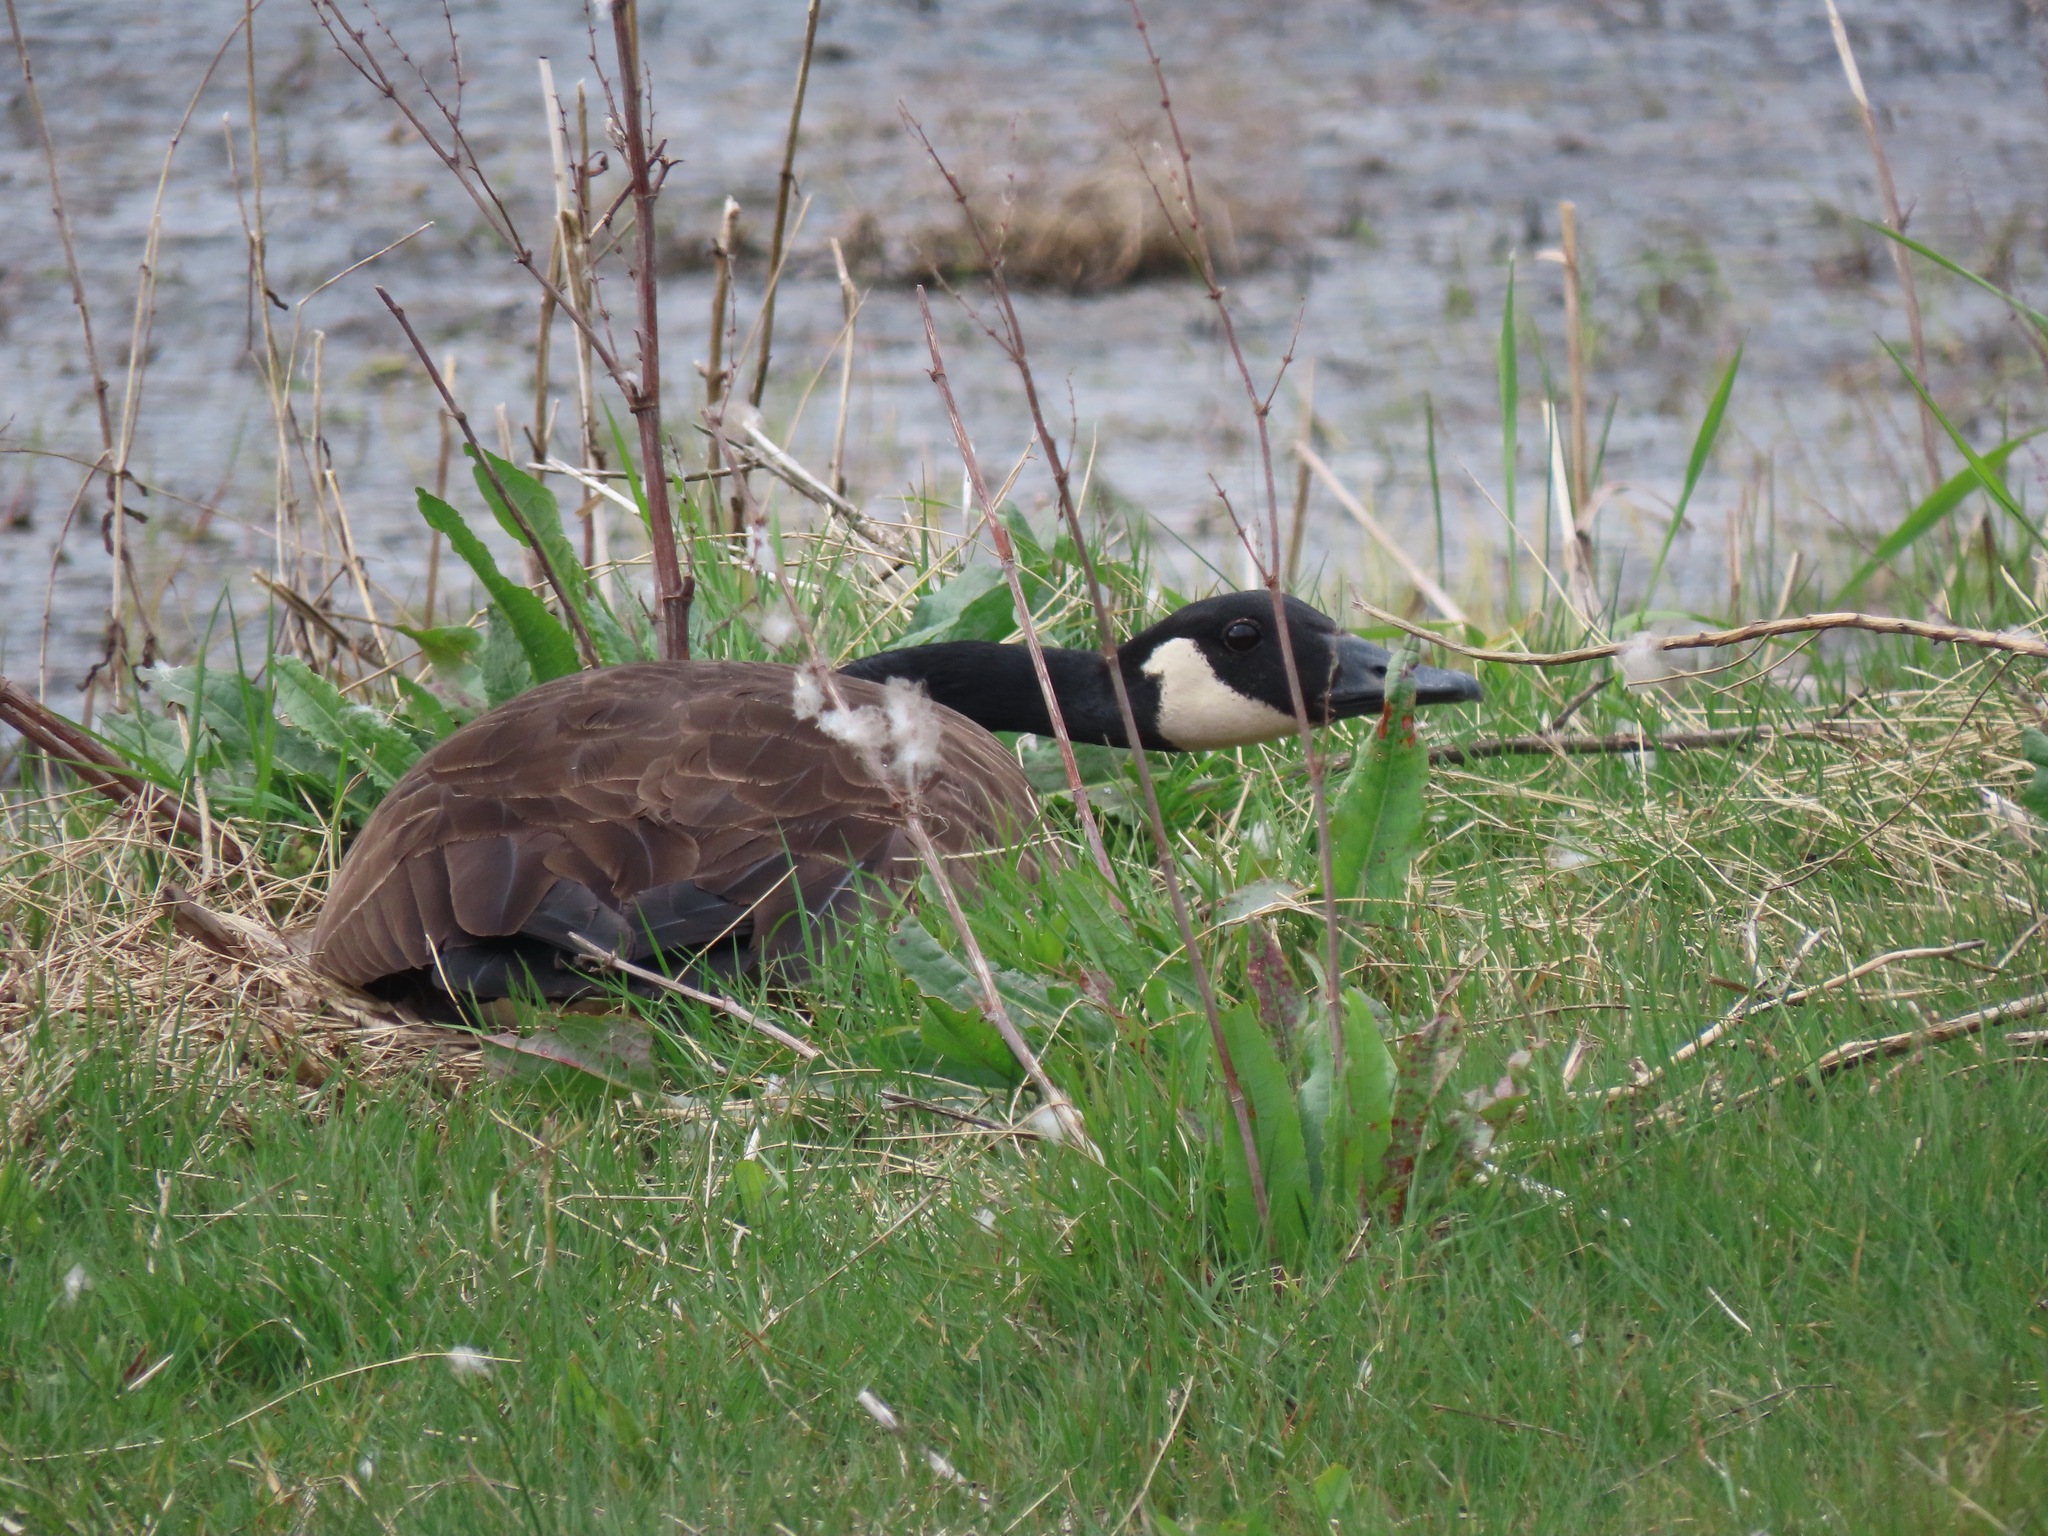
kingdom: Animalia
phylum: Chordata
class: Aves
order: Anseriformes
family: Anatidae
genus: Branta
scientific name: Branta canadensis
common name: Canada goose
